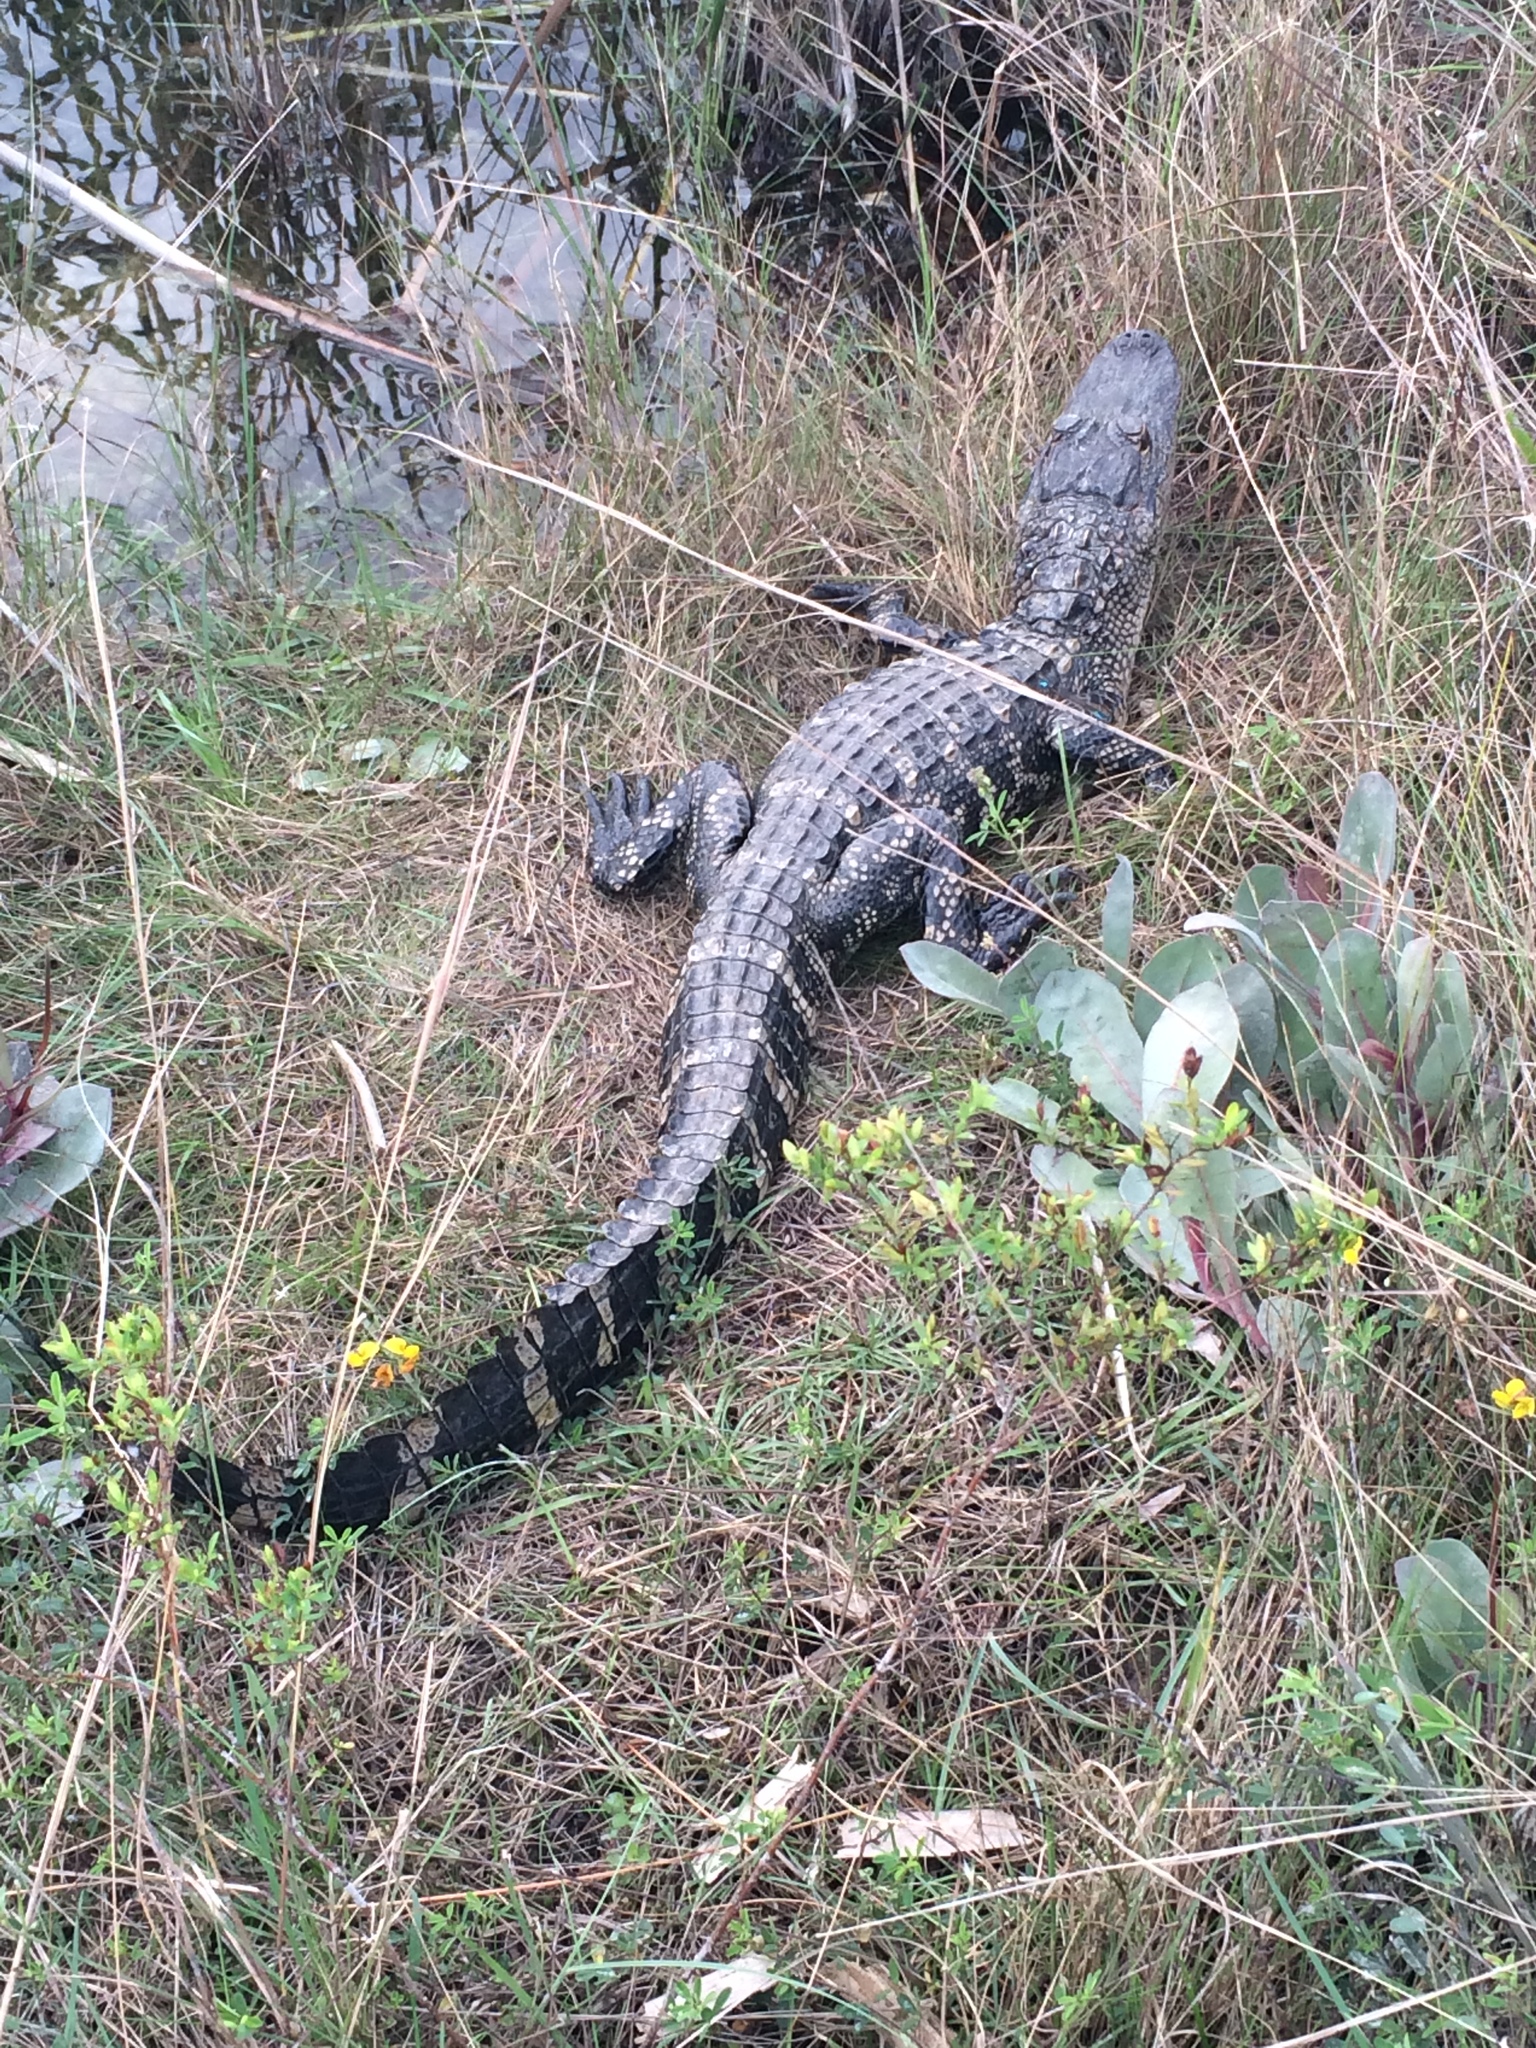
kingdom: Animalia
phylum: Chordata
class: Crocodylia
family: Alligatoridae
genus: Alligator
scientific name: Alligator mississippiensis
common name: American alligator
